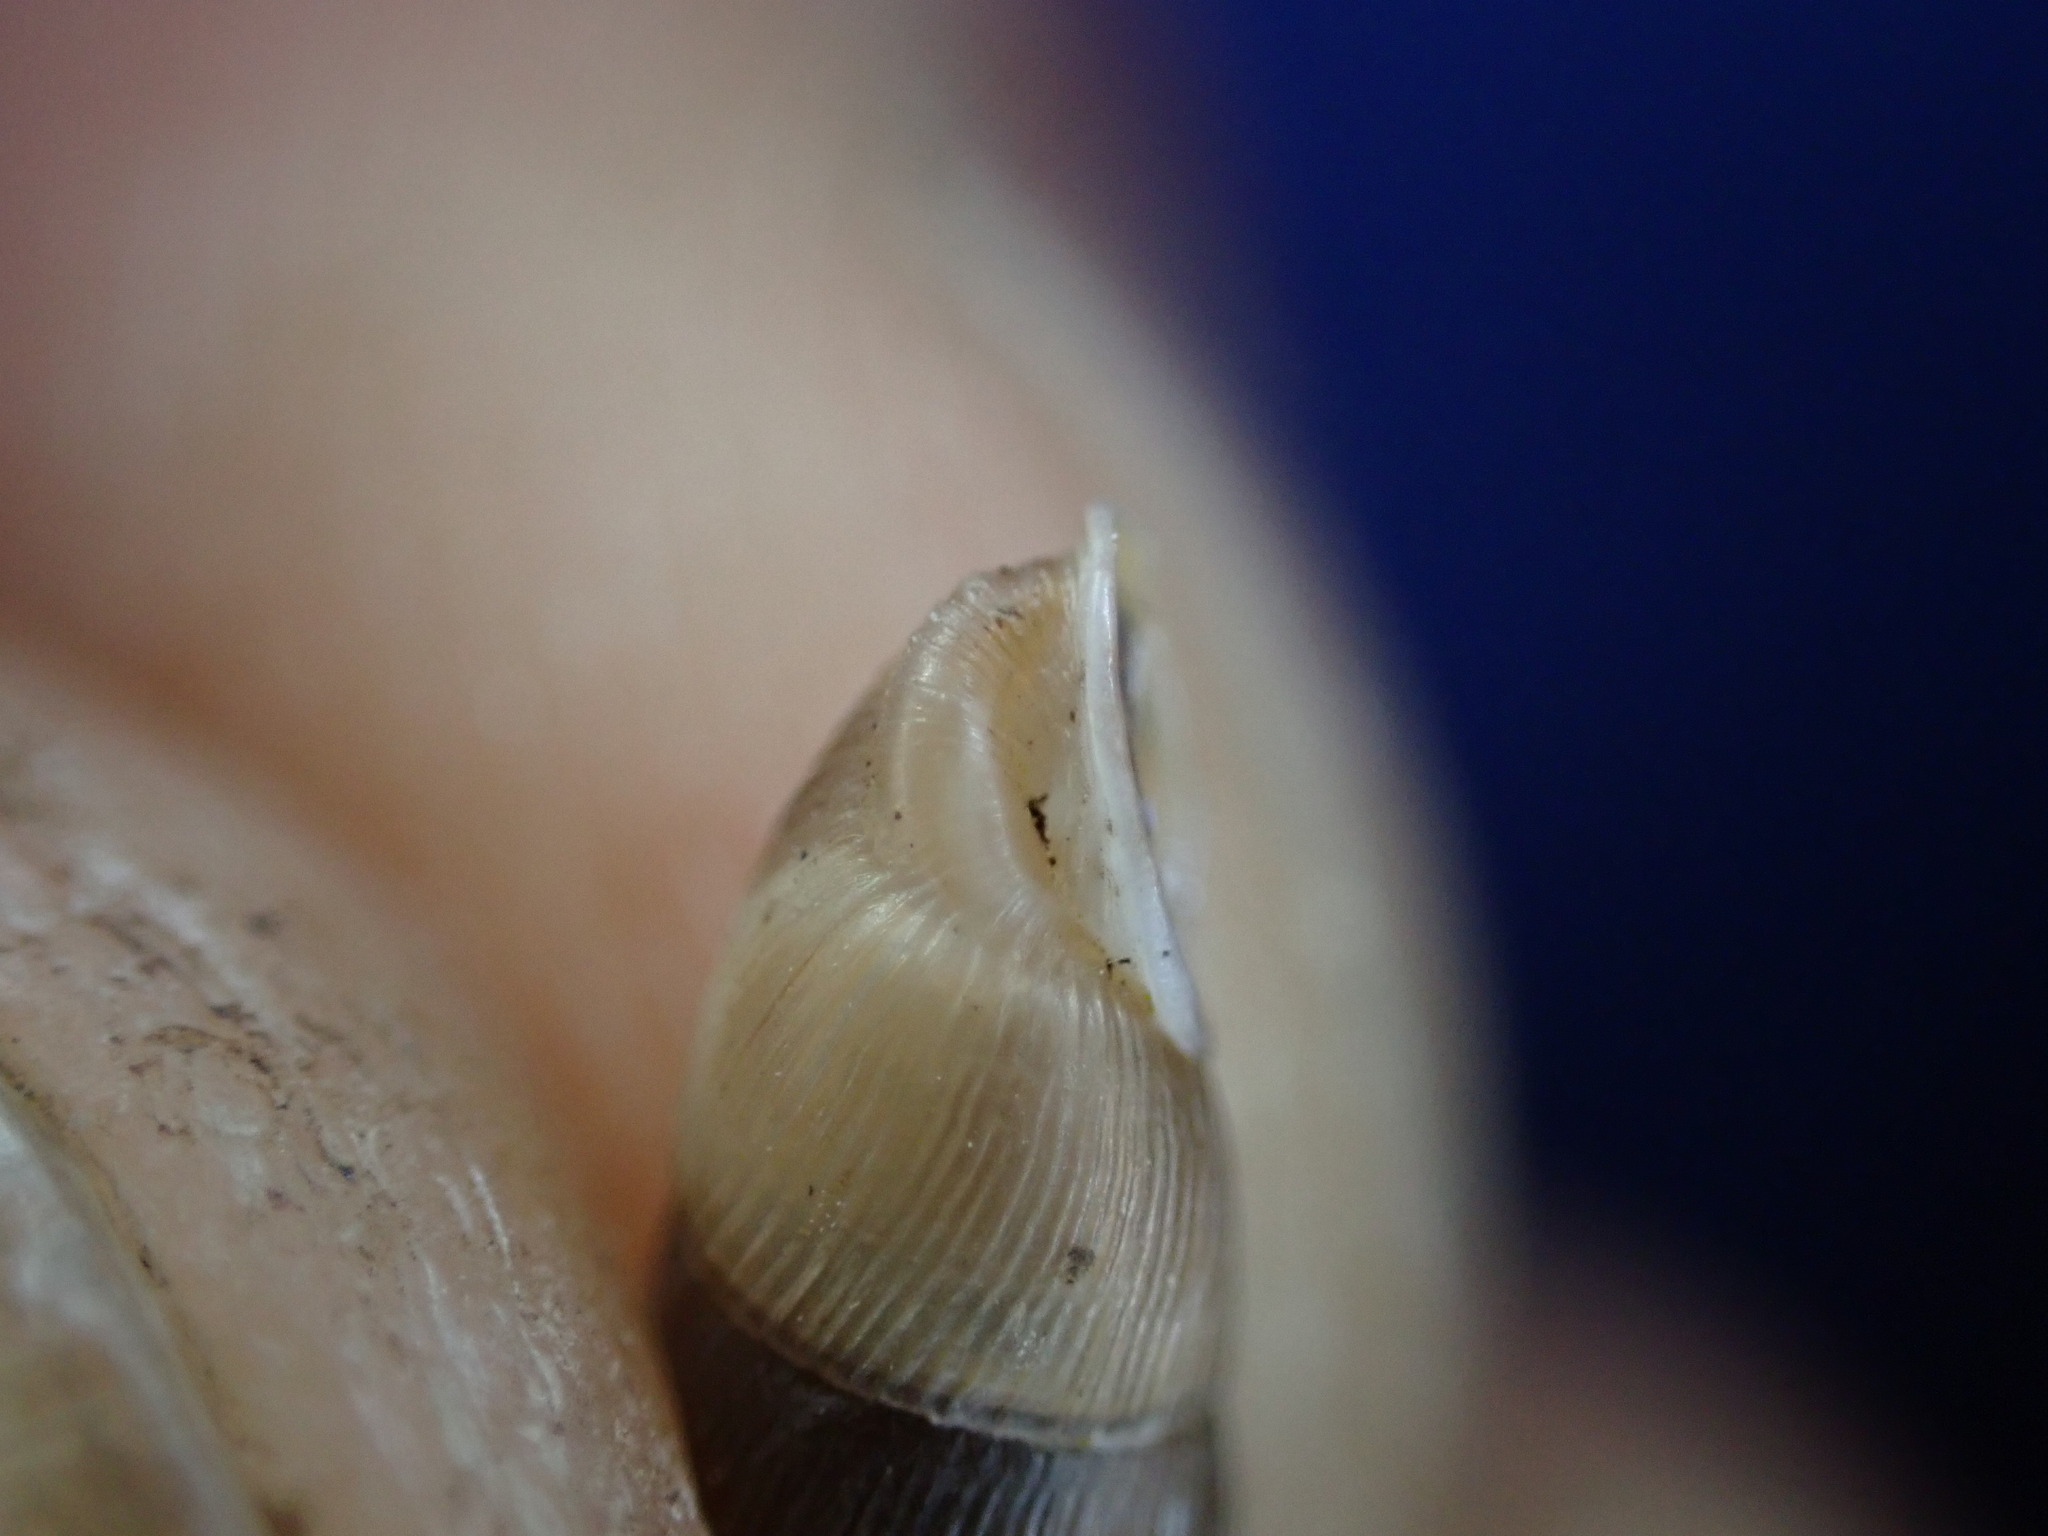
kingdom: Animalia
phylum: Mollusca
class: Gastropoda
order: Stylommatophora
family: Clausiliidae
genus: Papillifera
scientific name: Papillifera solida
